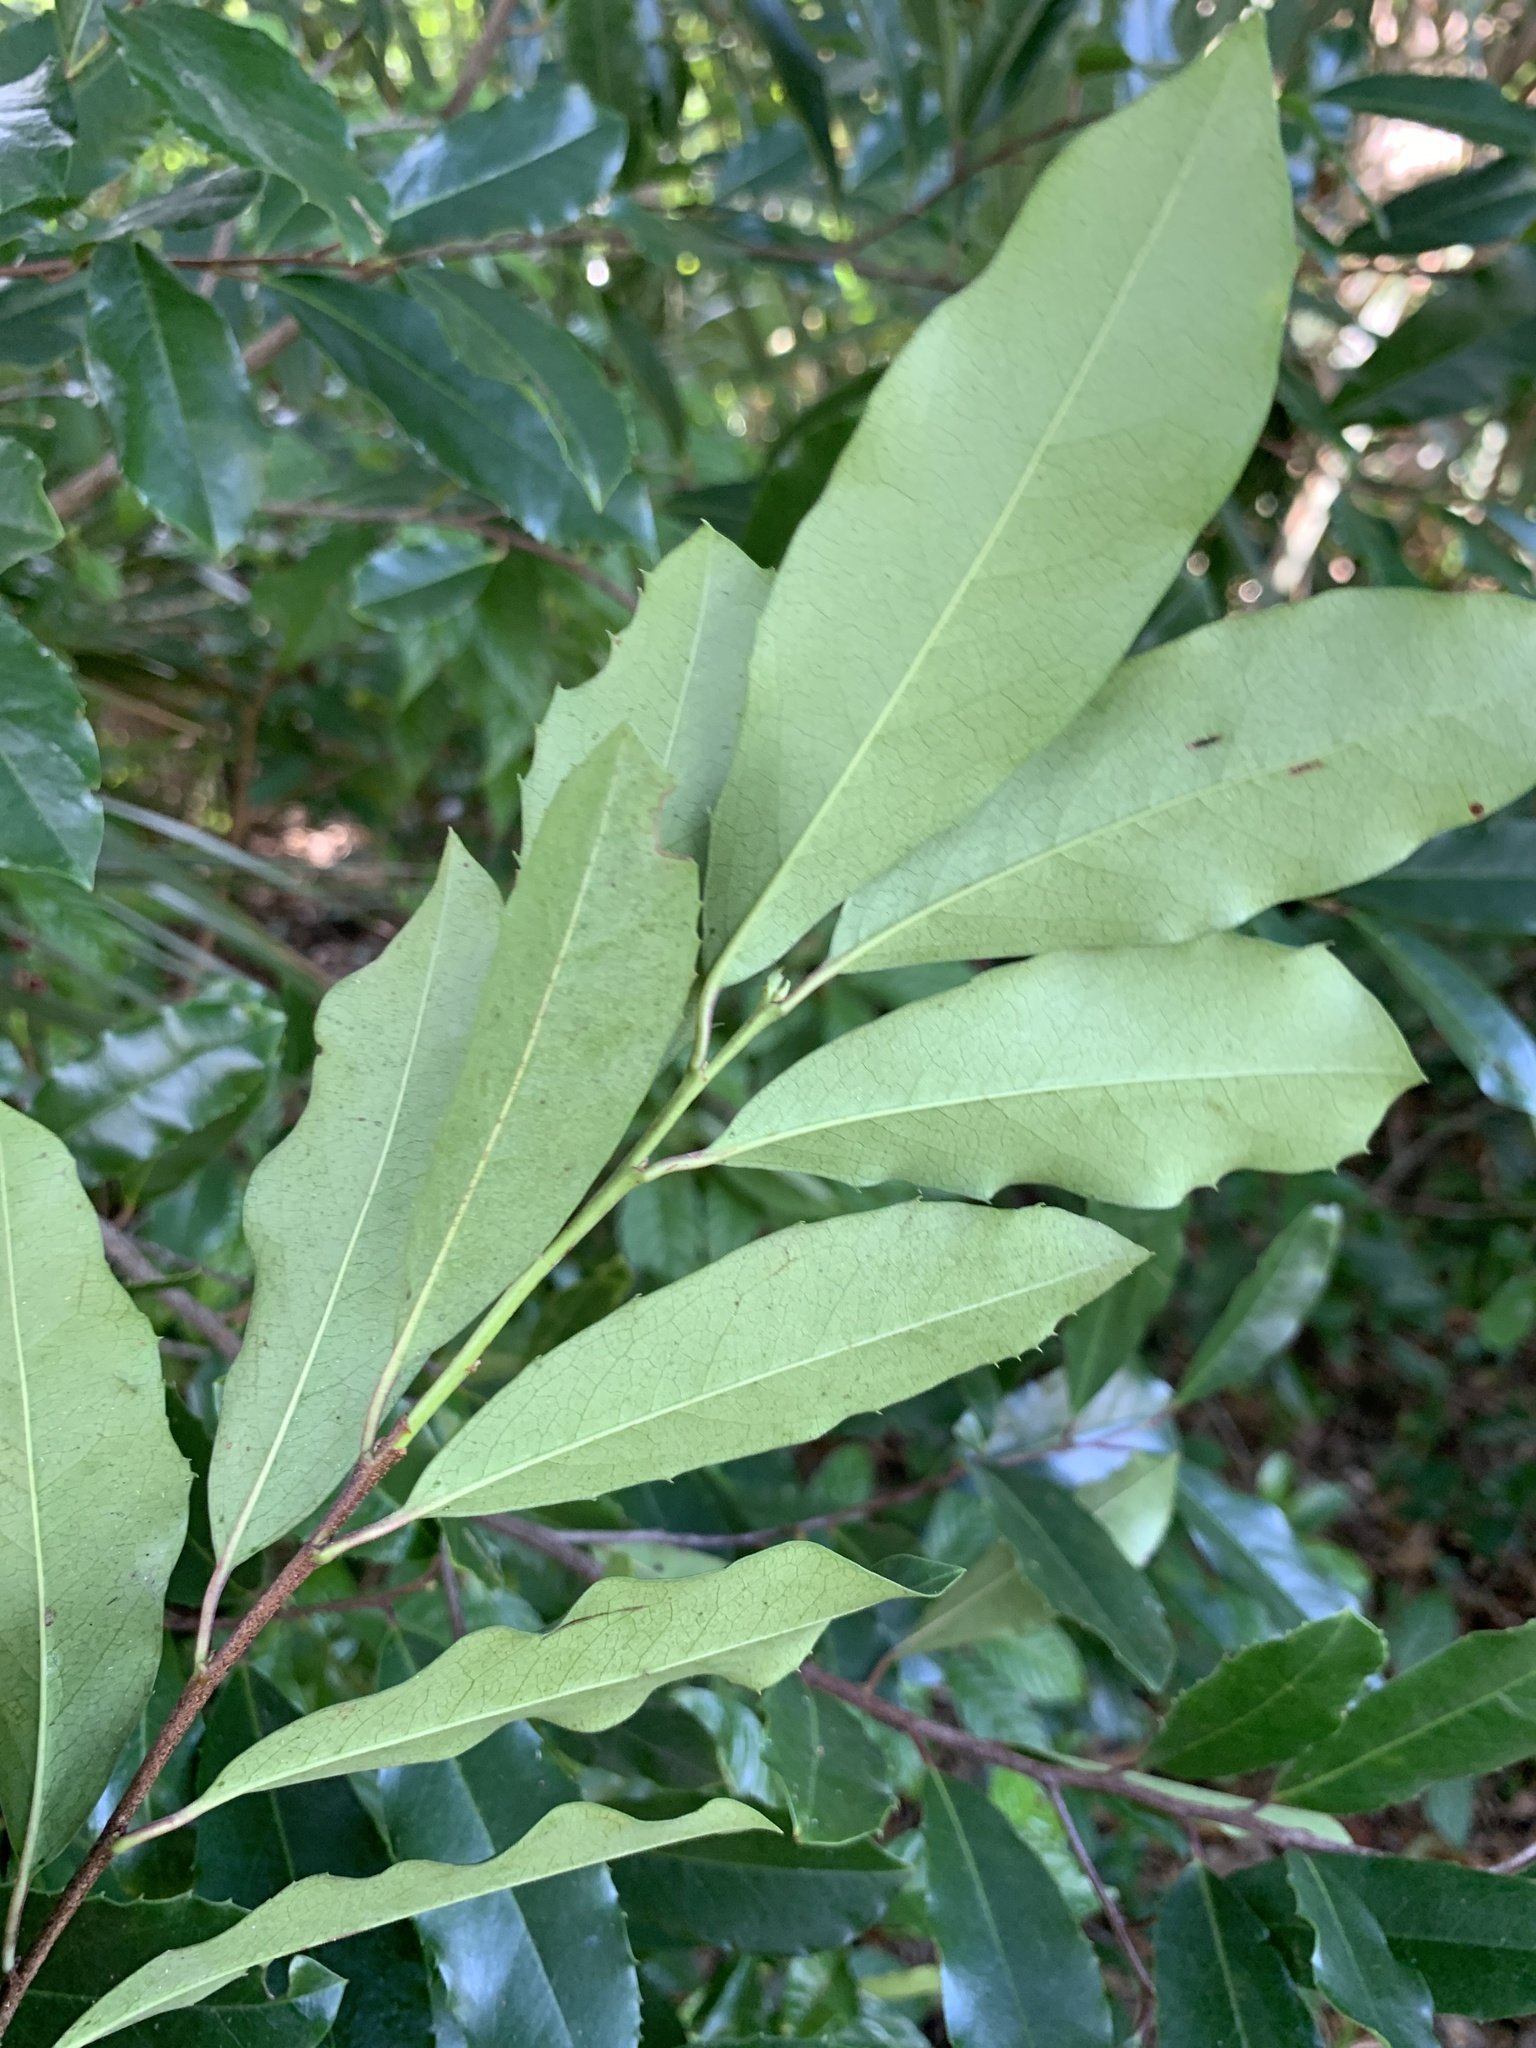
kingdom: Plantae
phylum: Tracheophyta
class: Magnoliopsida
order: Rosales
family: Rosaceae
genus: Prunus
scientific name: Prunus caroliniana
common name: Carolina laurel cherry
